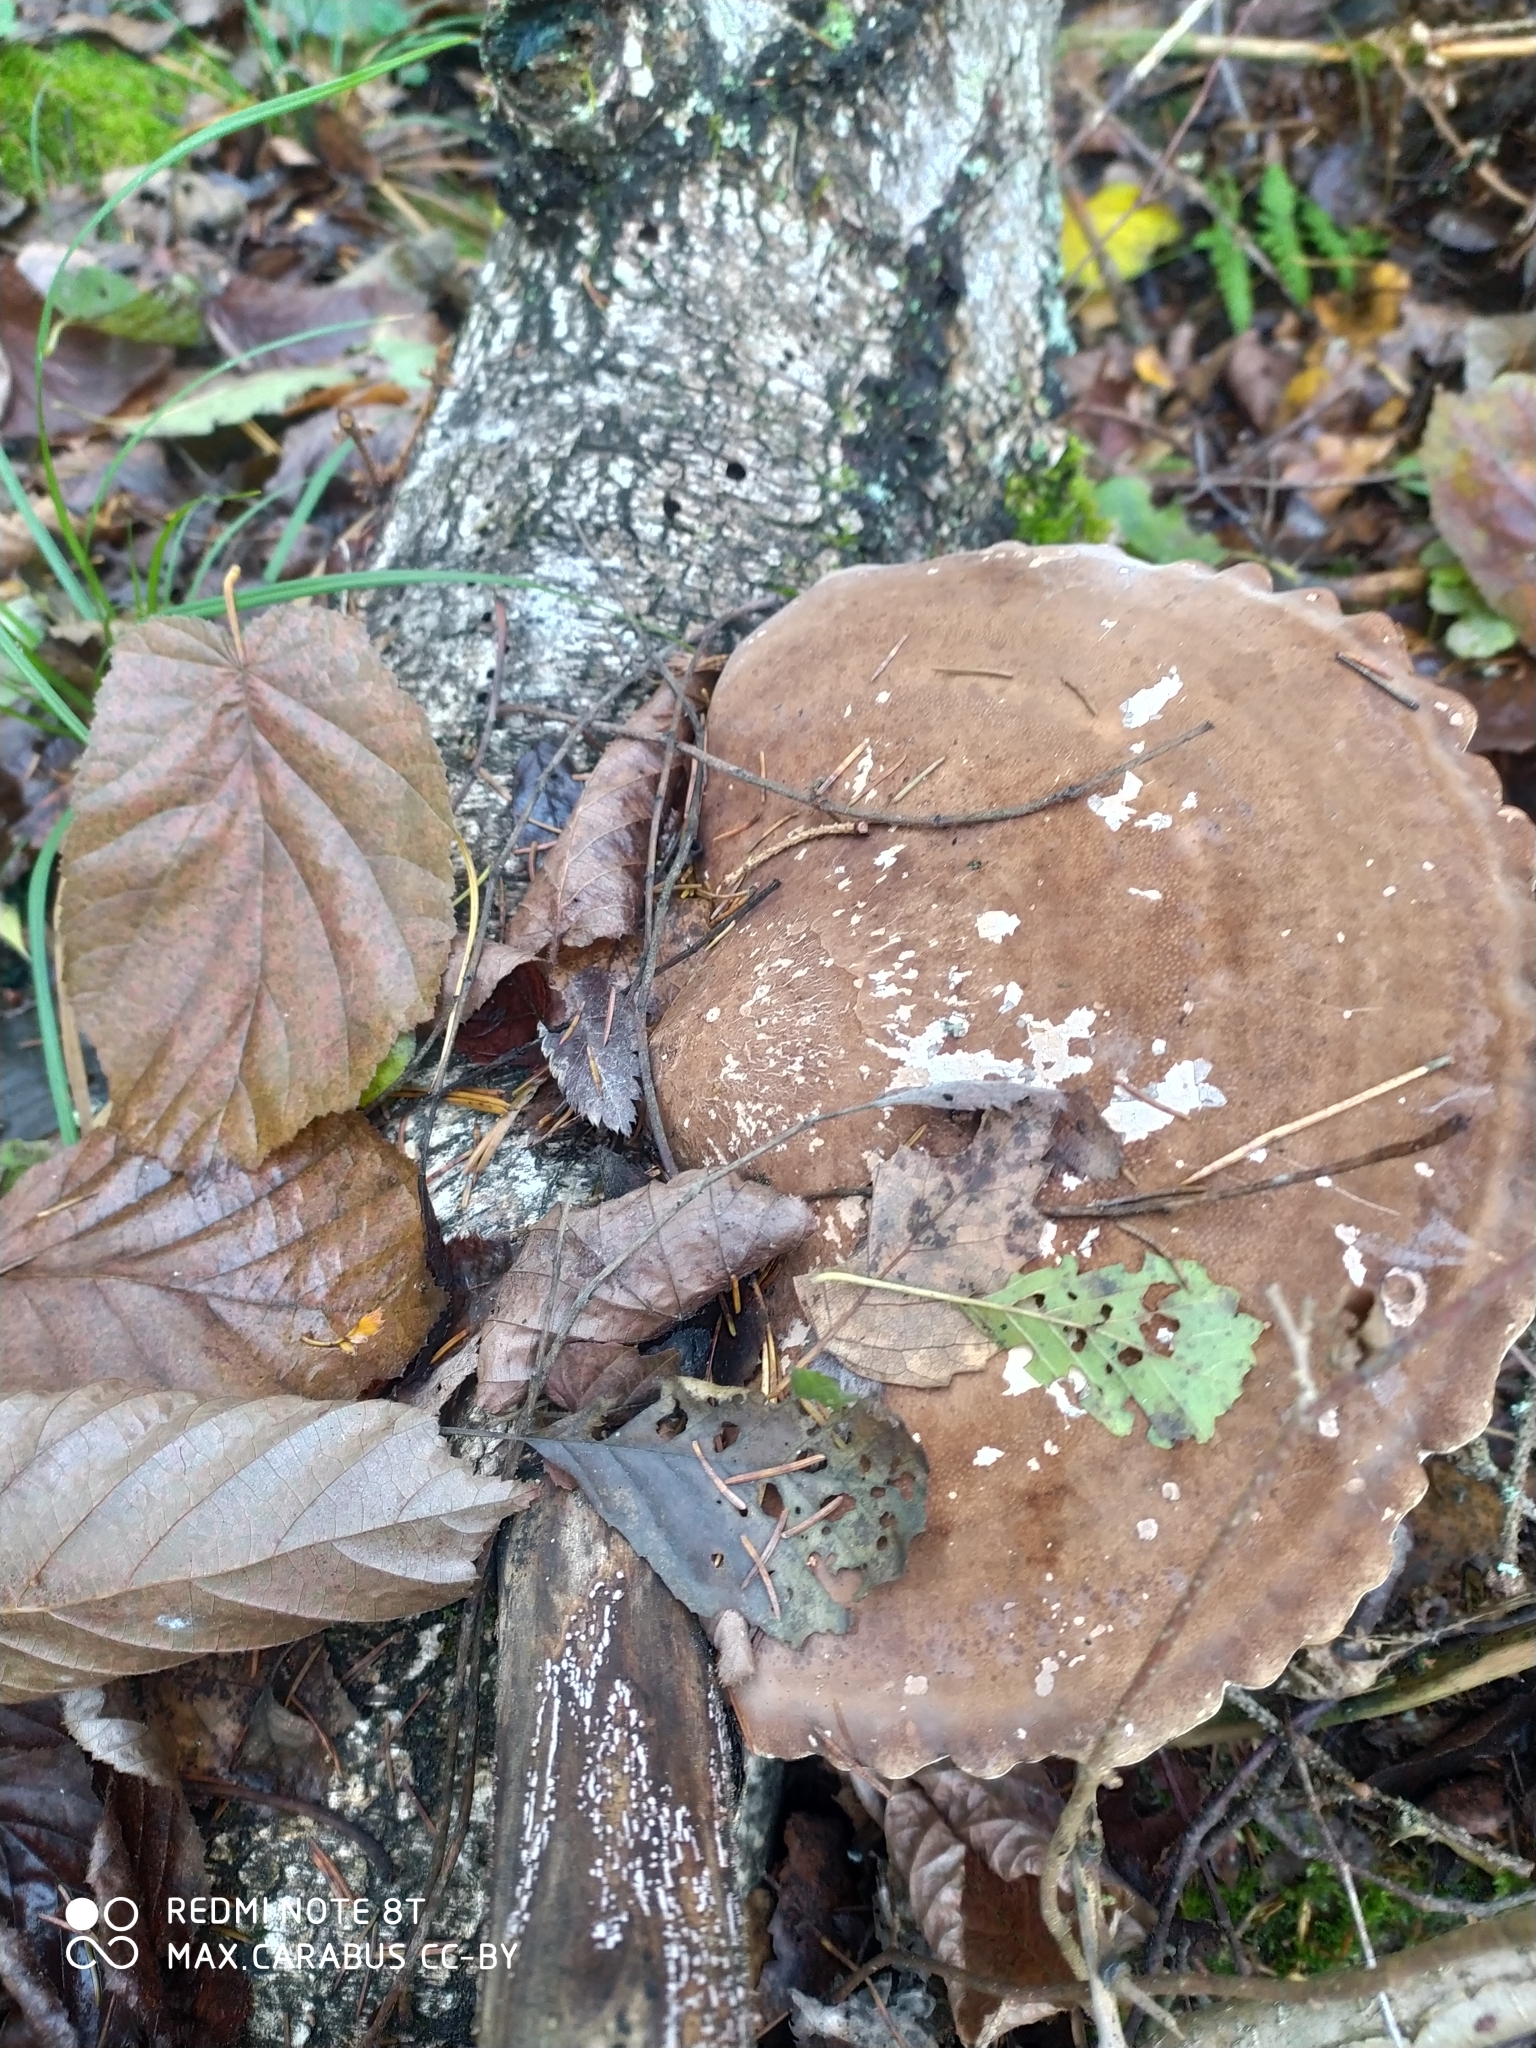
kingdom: Fungi
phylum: Basidiomycota
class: Agaricomycetes
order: Polyporales
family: Fomitopsidaceae
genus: Fomitopsis
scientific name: Fomitopsis betulina
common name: Birch polypore
